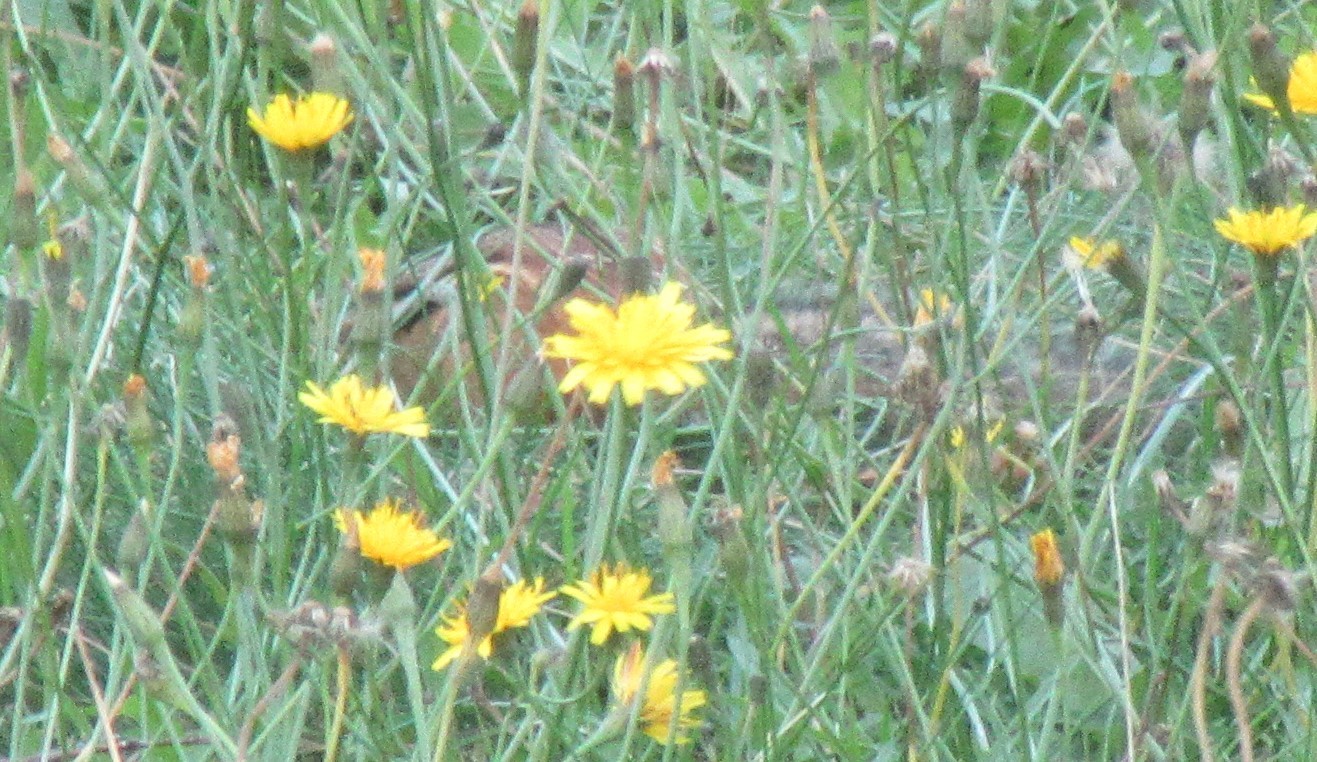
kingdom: Animalia
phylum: Chordata
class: Mammalia
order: Rodentia
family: Sciuridae
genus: Tamias
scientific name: Tamias striatus
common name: Eastern chipmunk
